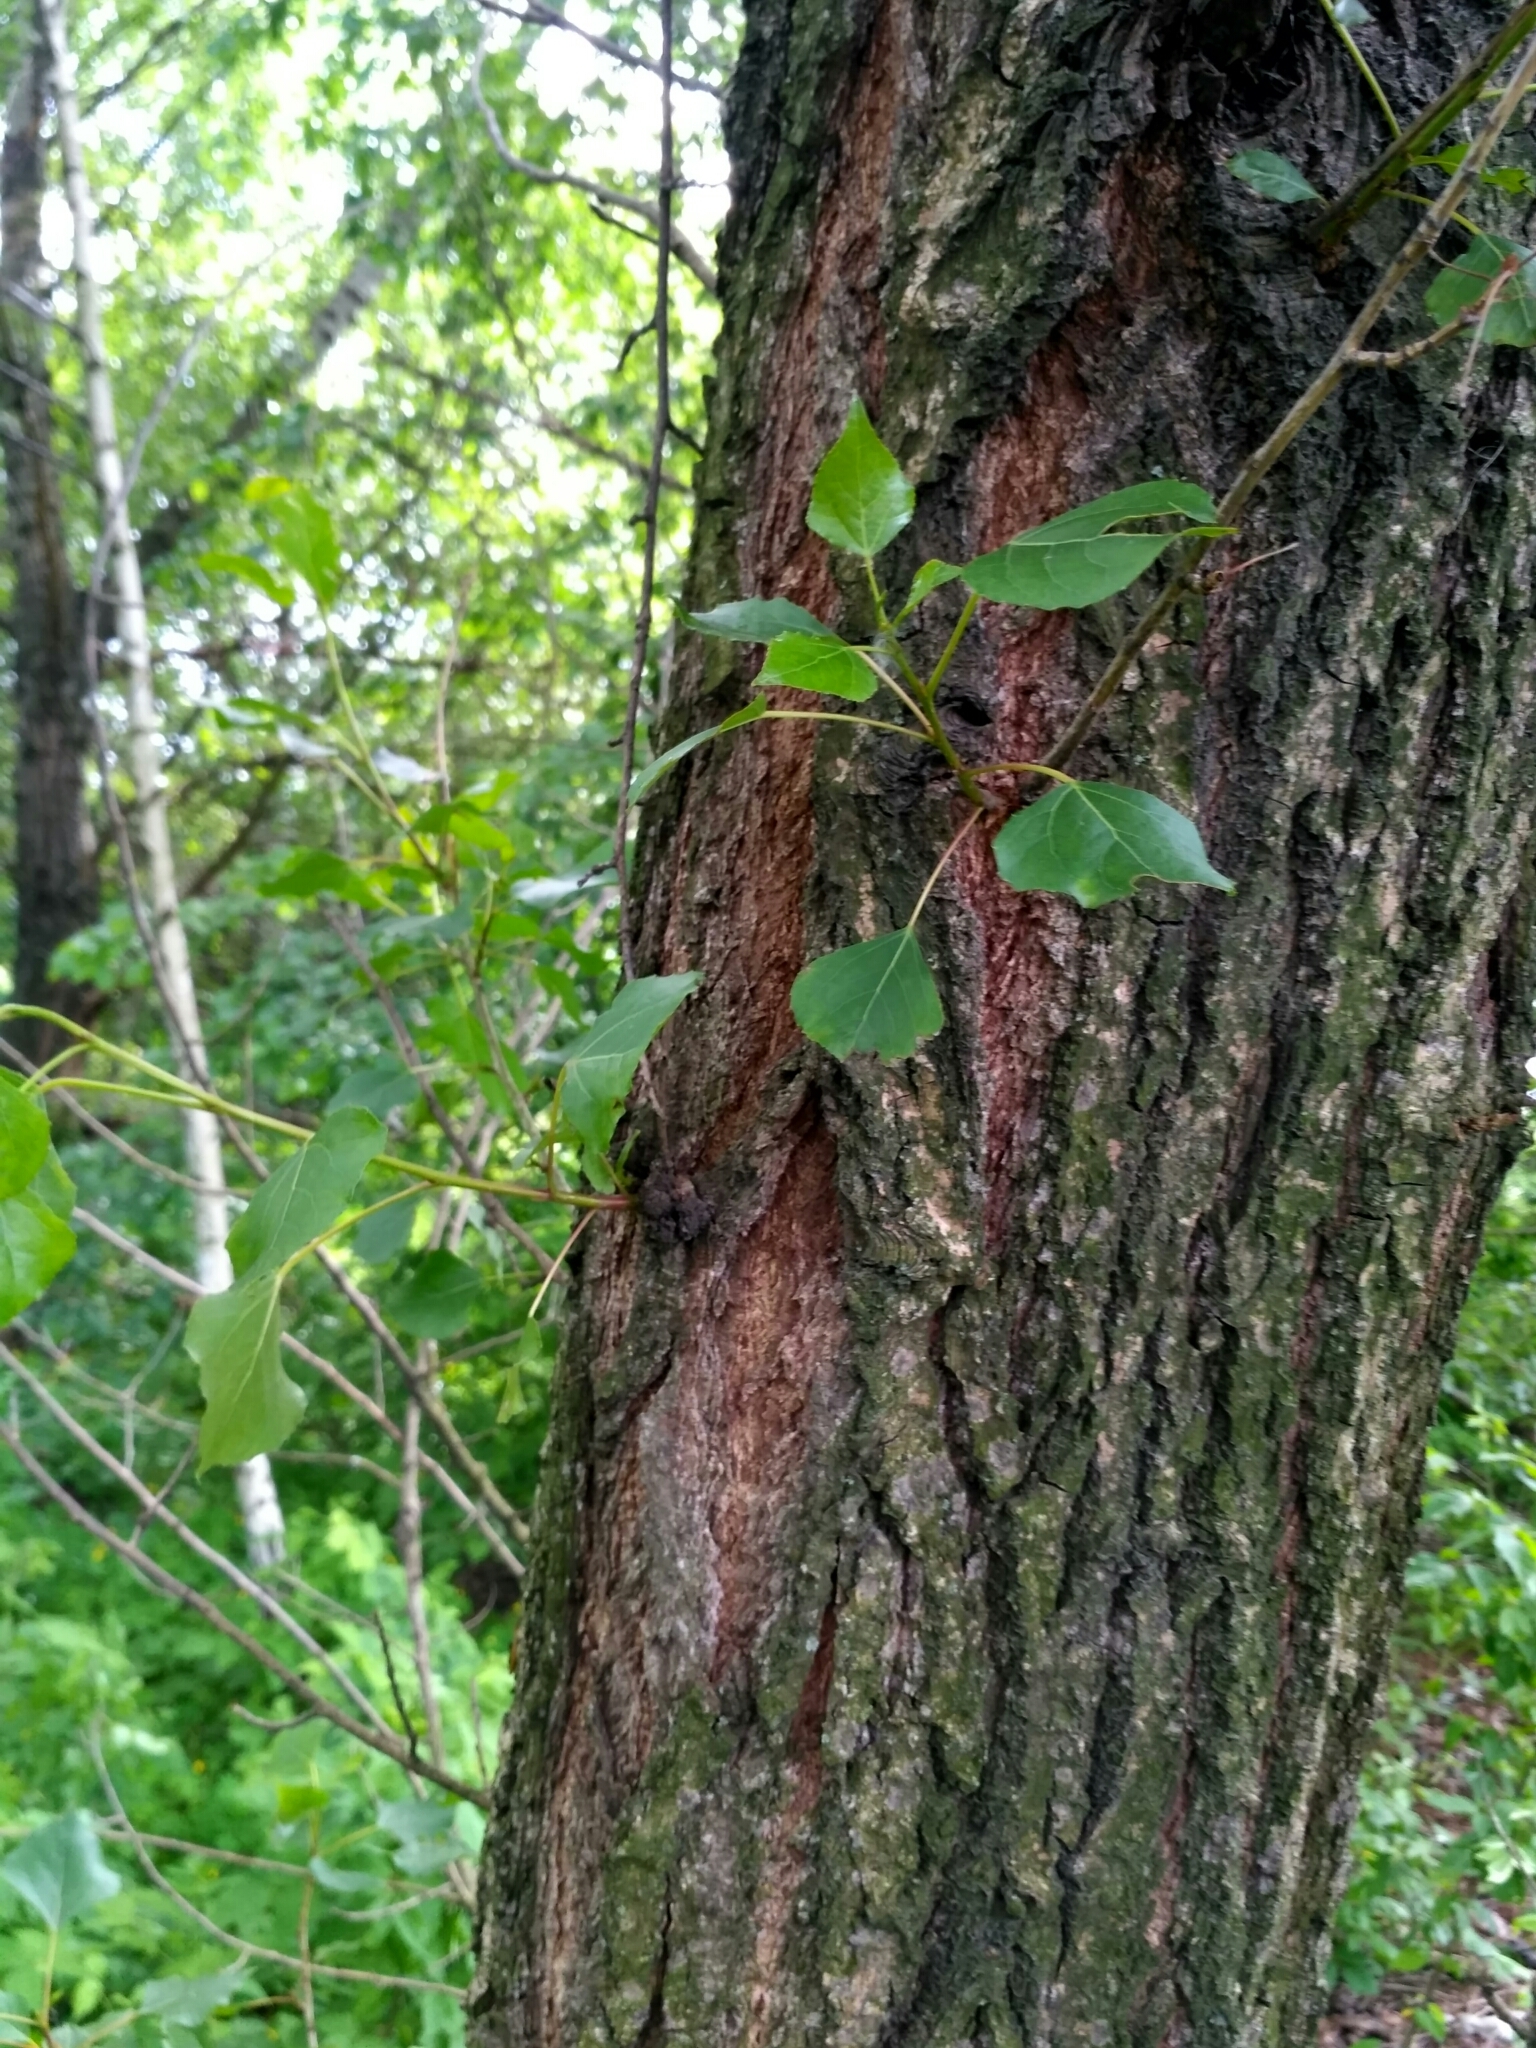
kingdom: Plantae
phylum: Tracheophyta
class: Magnoliopsida
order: Malpighiales
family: Salicaceae
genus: Populus
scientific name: Populus nigra
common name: Black poplar
